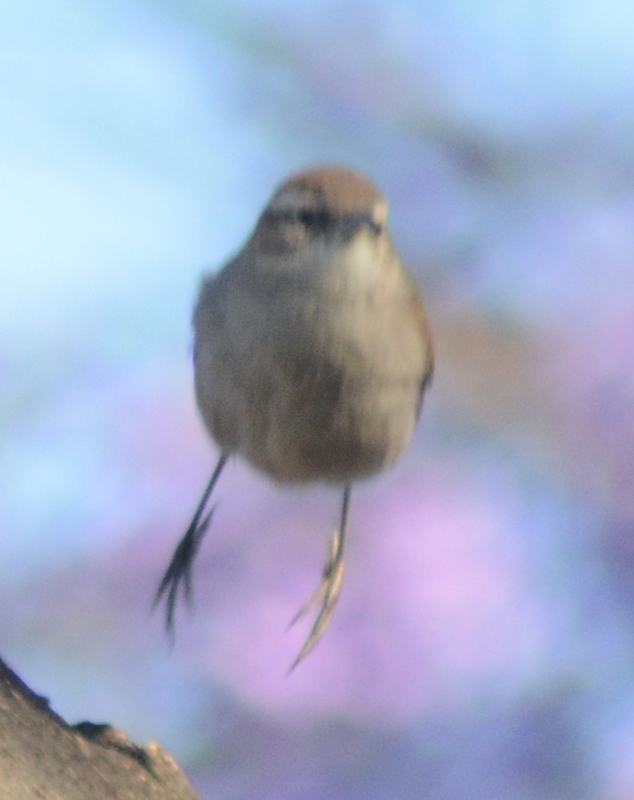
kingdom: Animalia
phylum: Chordata
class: Aves
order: Passeriformes
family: Troglodytidae
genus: Thryomanes
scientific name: Thryomanes bewickii
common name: Bewick's wren
